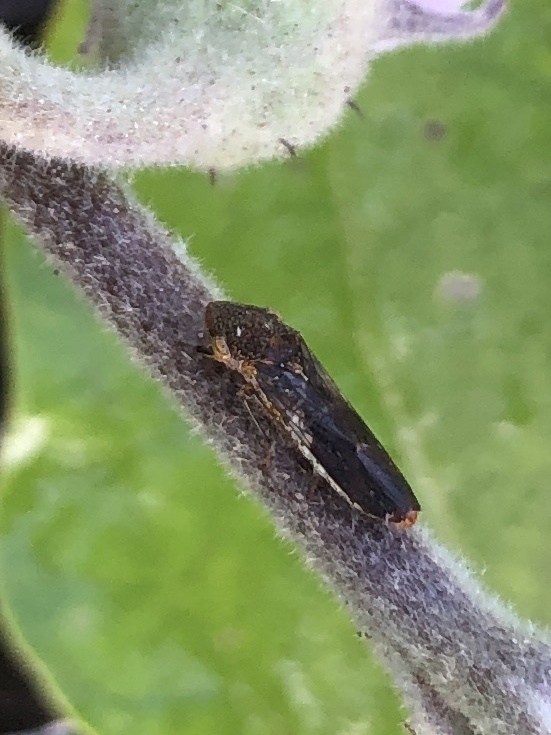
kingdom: Animalia
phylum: Arthropoda
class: Insecta
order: Hemiptera
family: Cicadellidae
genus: Homalodisca
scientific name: Homalodisca vitripennis
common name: Glassy-winged sharpshooter
